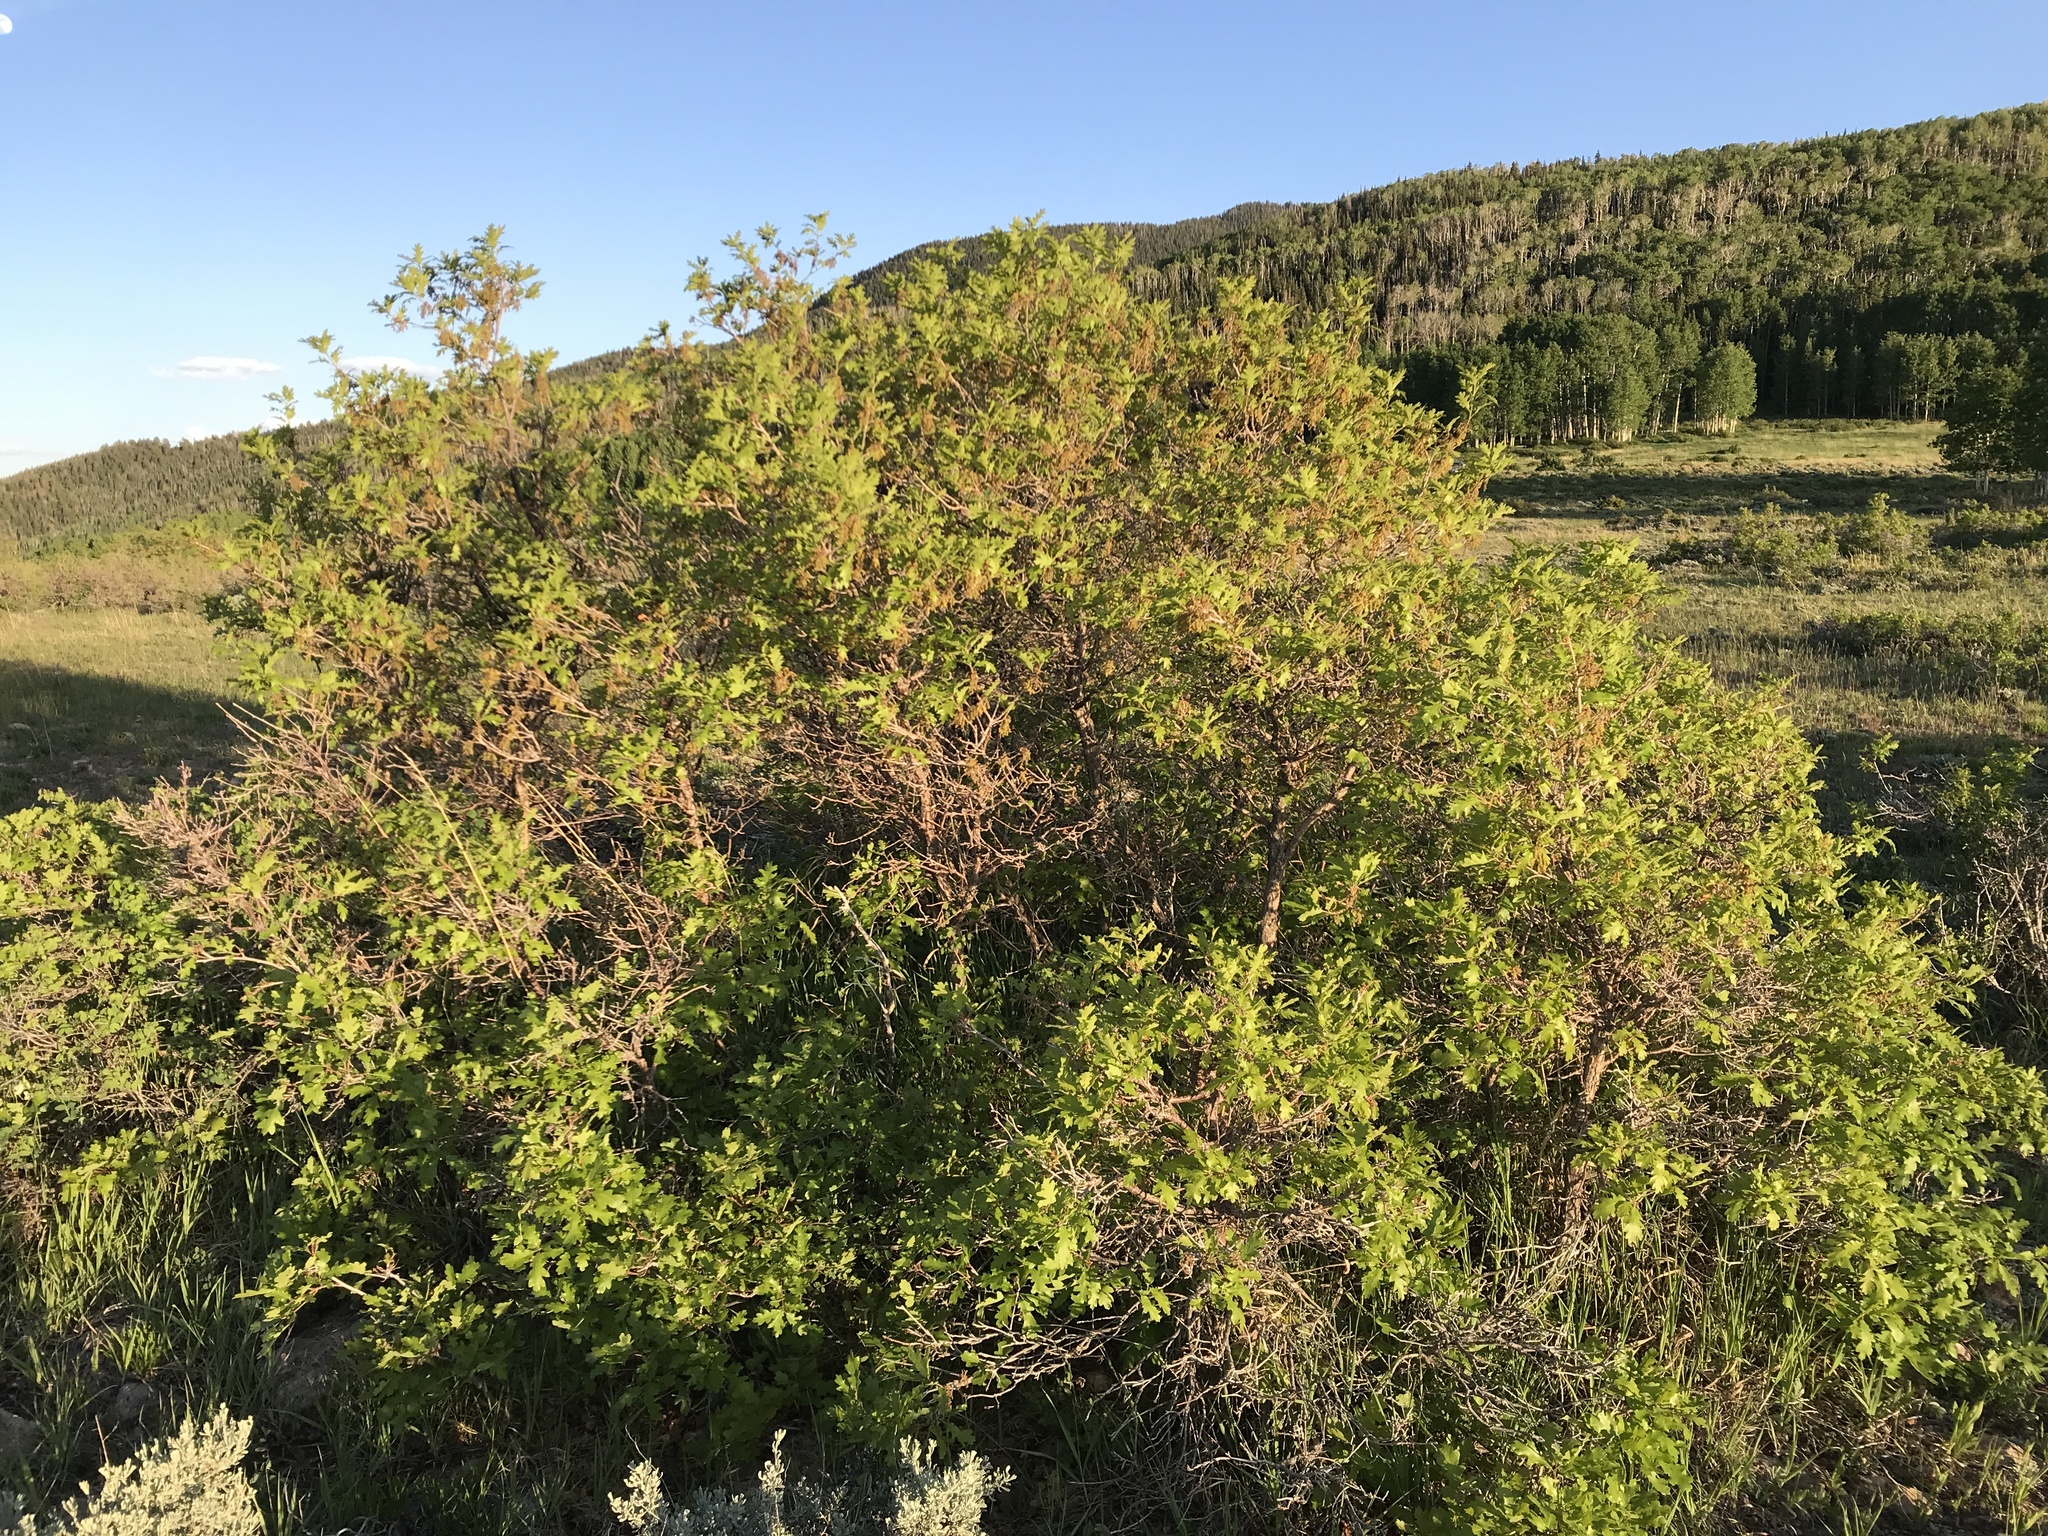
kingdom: Plantae
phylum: Tracheophyta
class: Magnoliopsida
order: Fagales
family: Fagaceae
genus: Quercus
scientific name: Quercus gambelii
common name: Gambel oak
